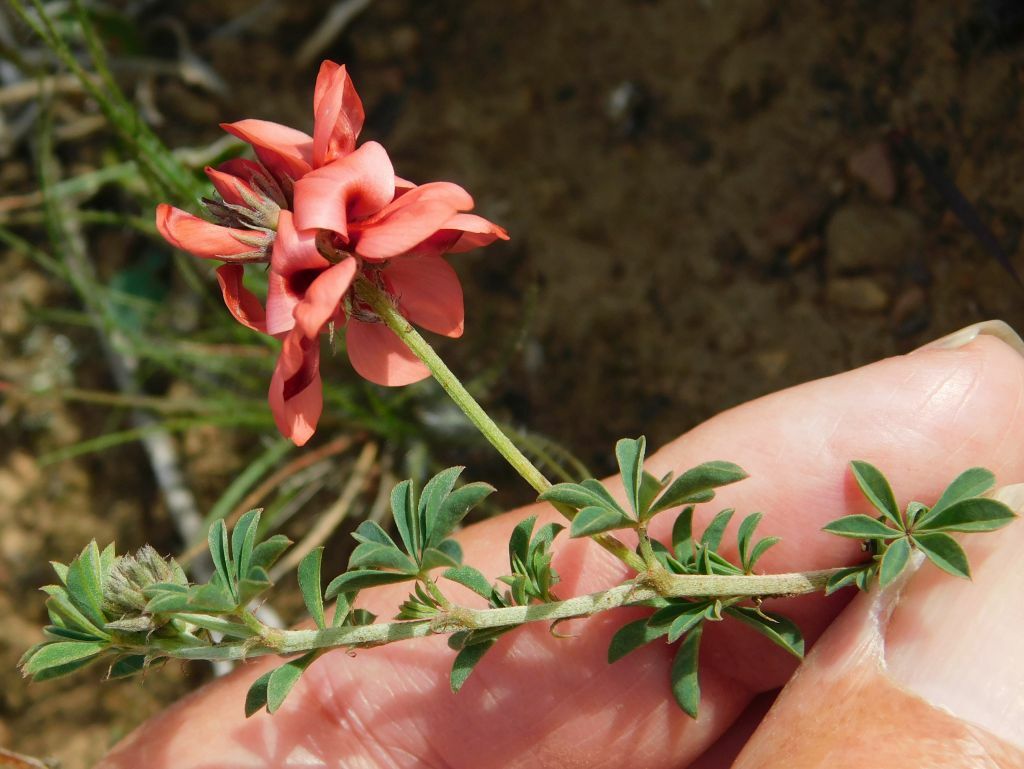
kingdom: Plantae
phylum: Tracheophyta
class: Magnoliopsida
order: Fabales
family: Fabaceae
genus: Indigofera
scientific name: Indigofera digitata
